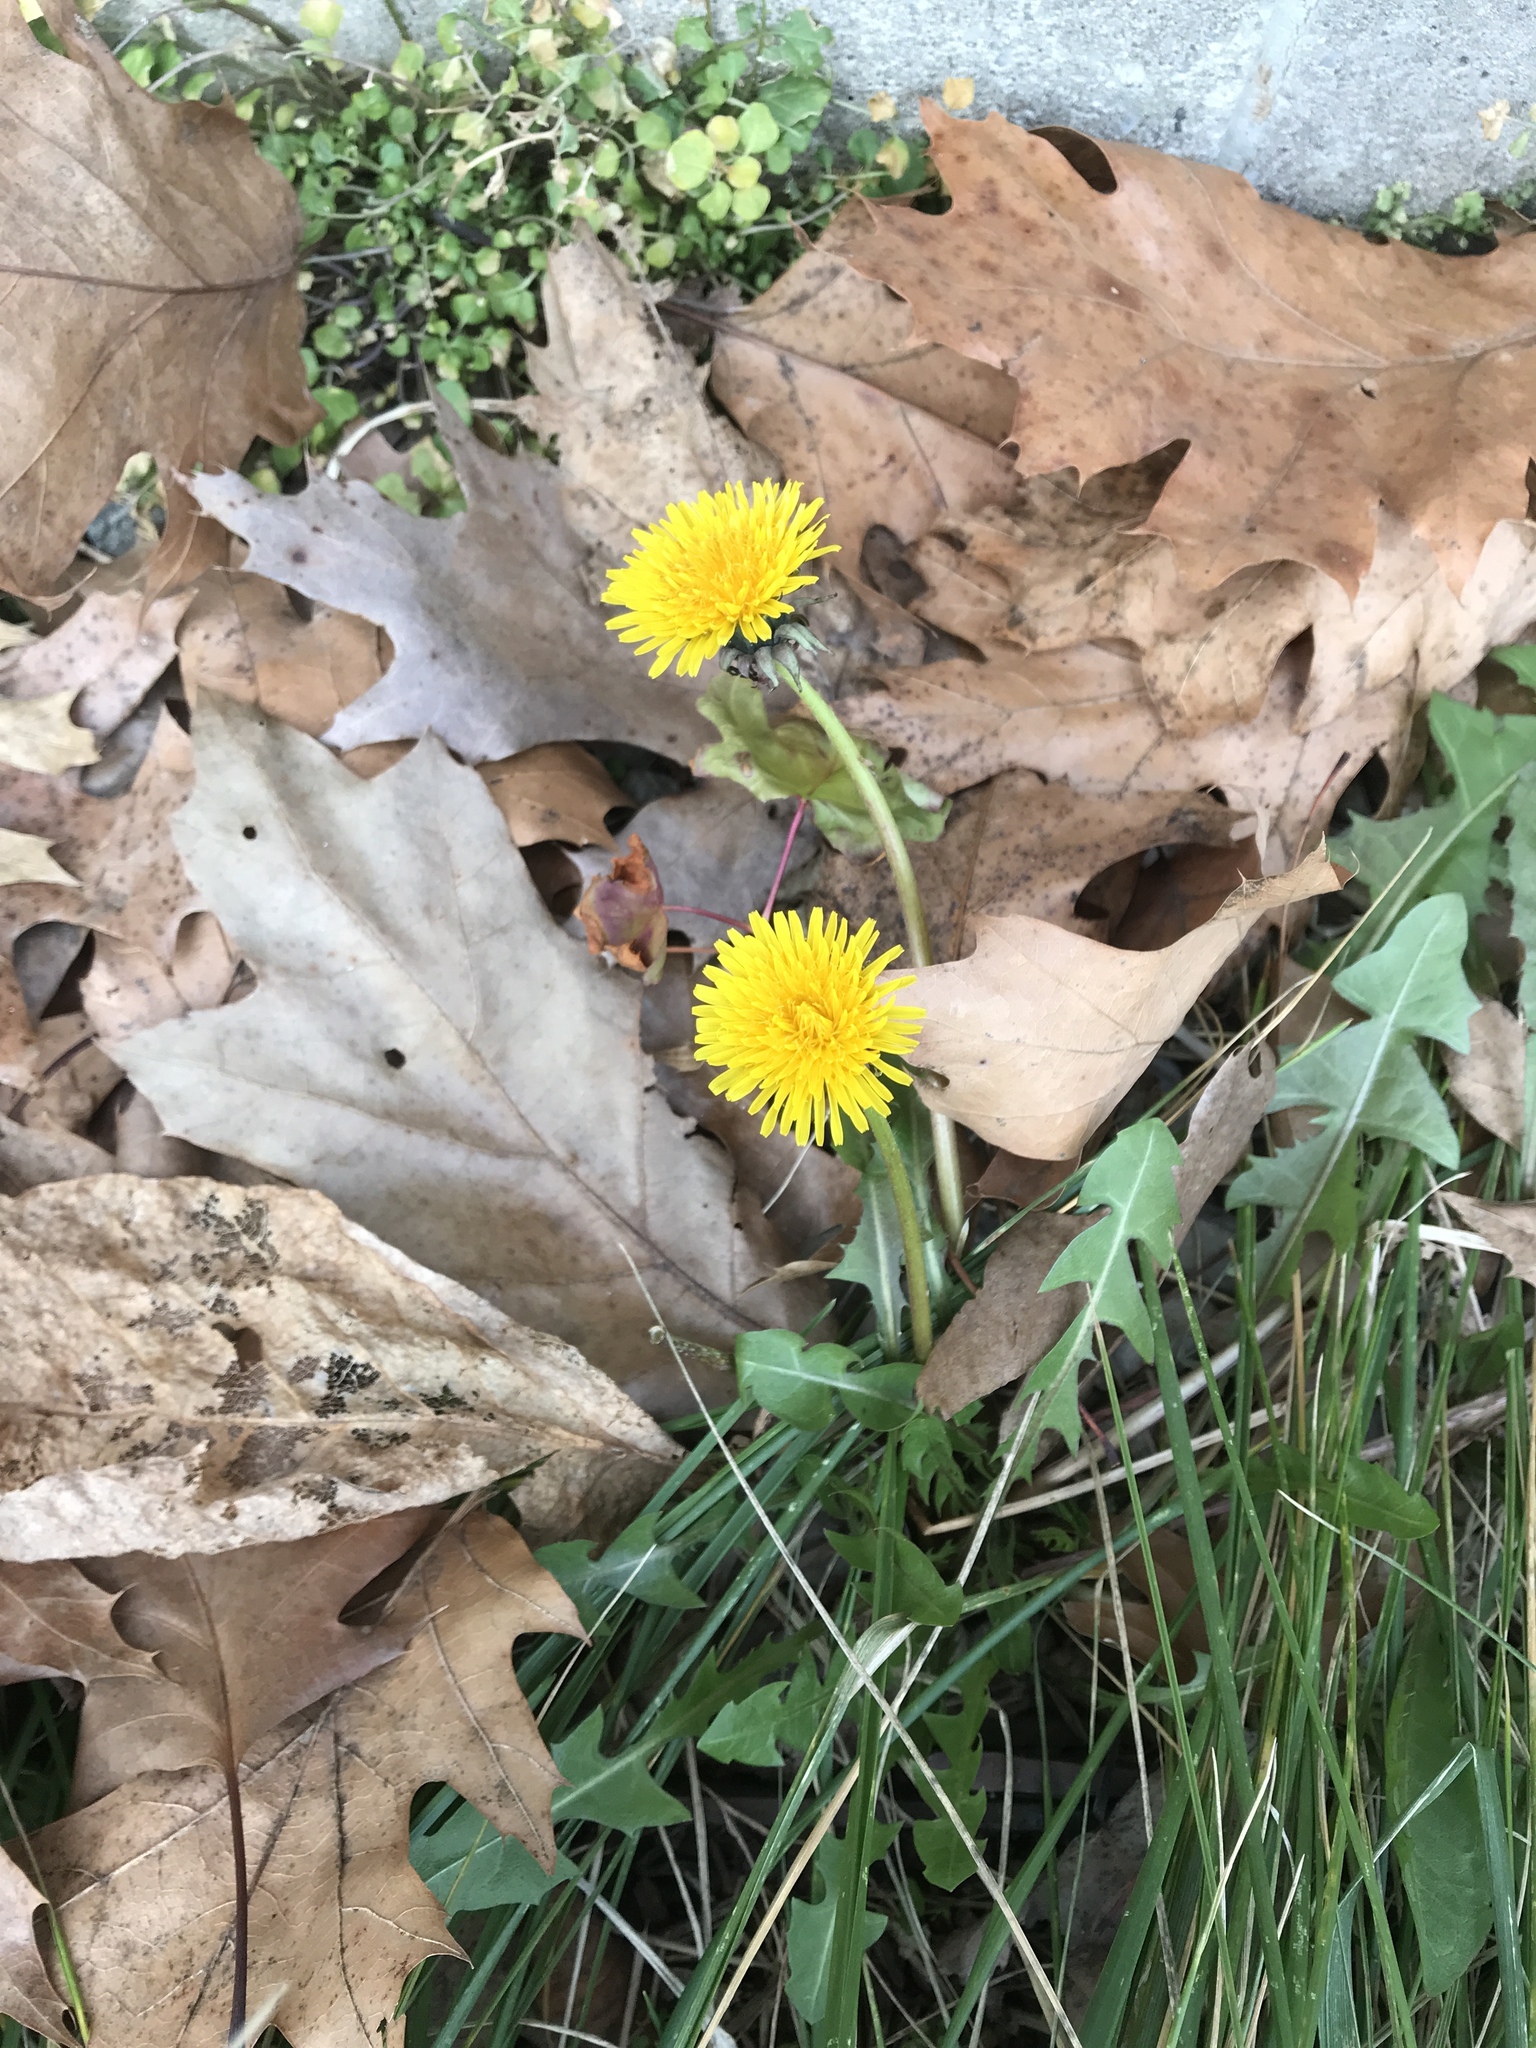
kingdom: Plantae
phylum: Tracheophyta
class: Magnoliopsida
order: Asterales
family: Asteraceae
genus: Taraxacum
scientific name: Taraxacum officinale
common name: Common dandelion
